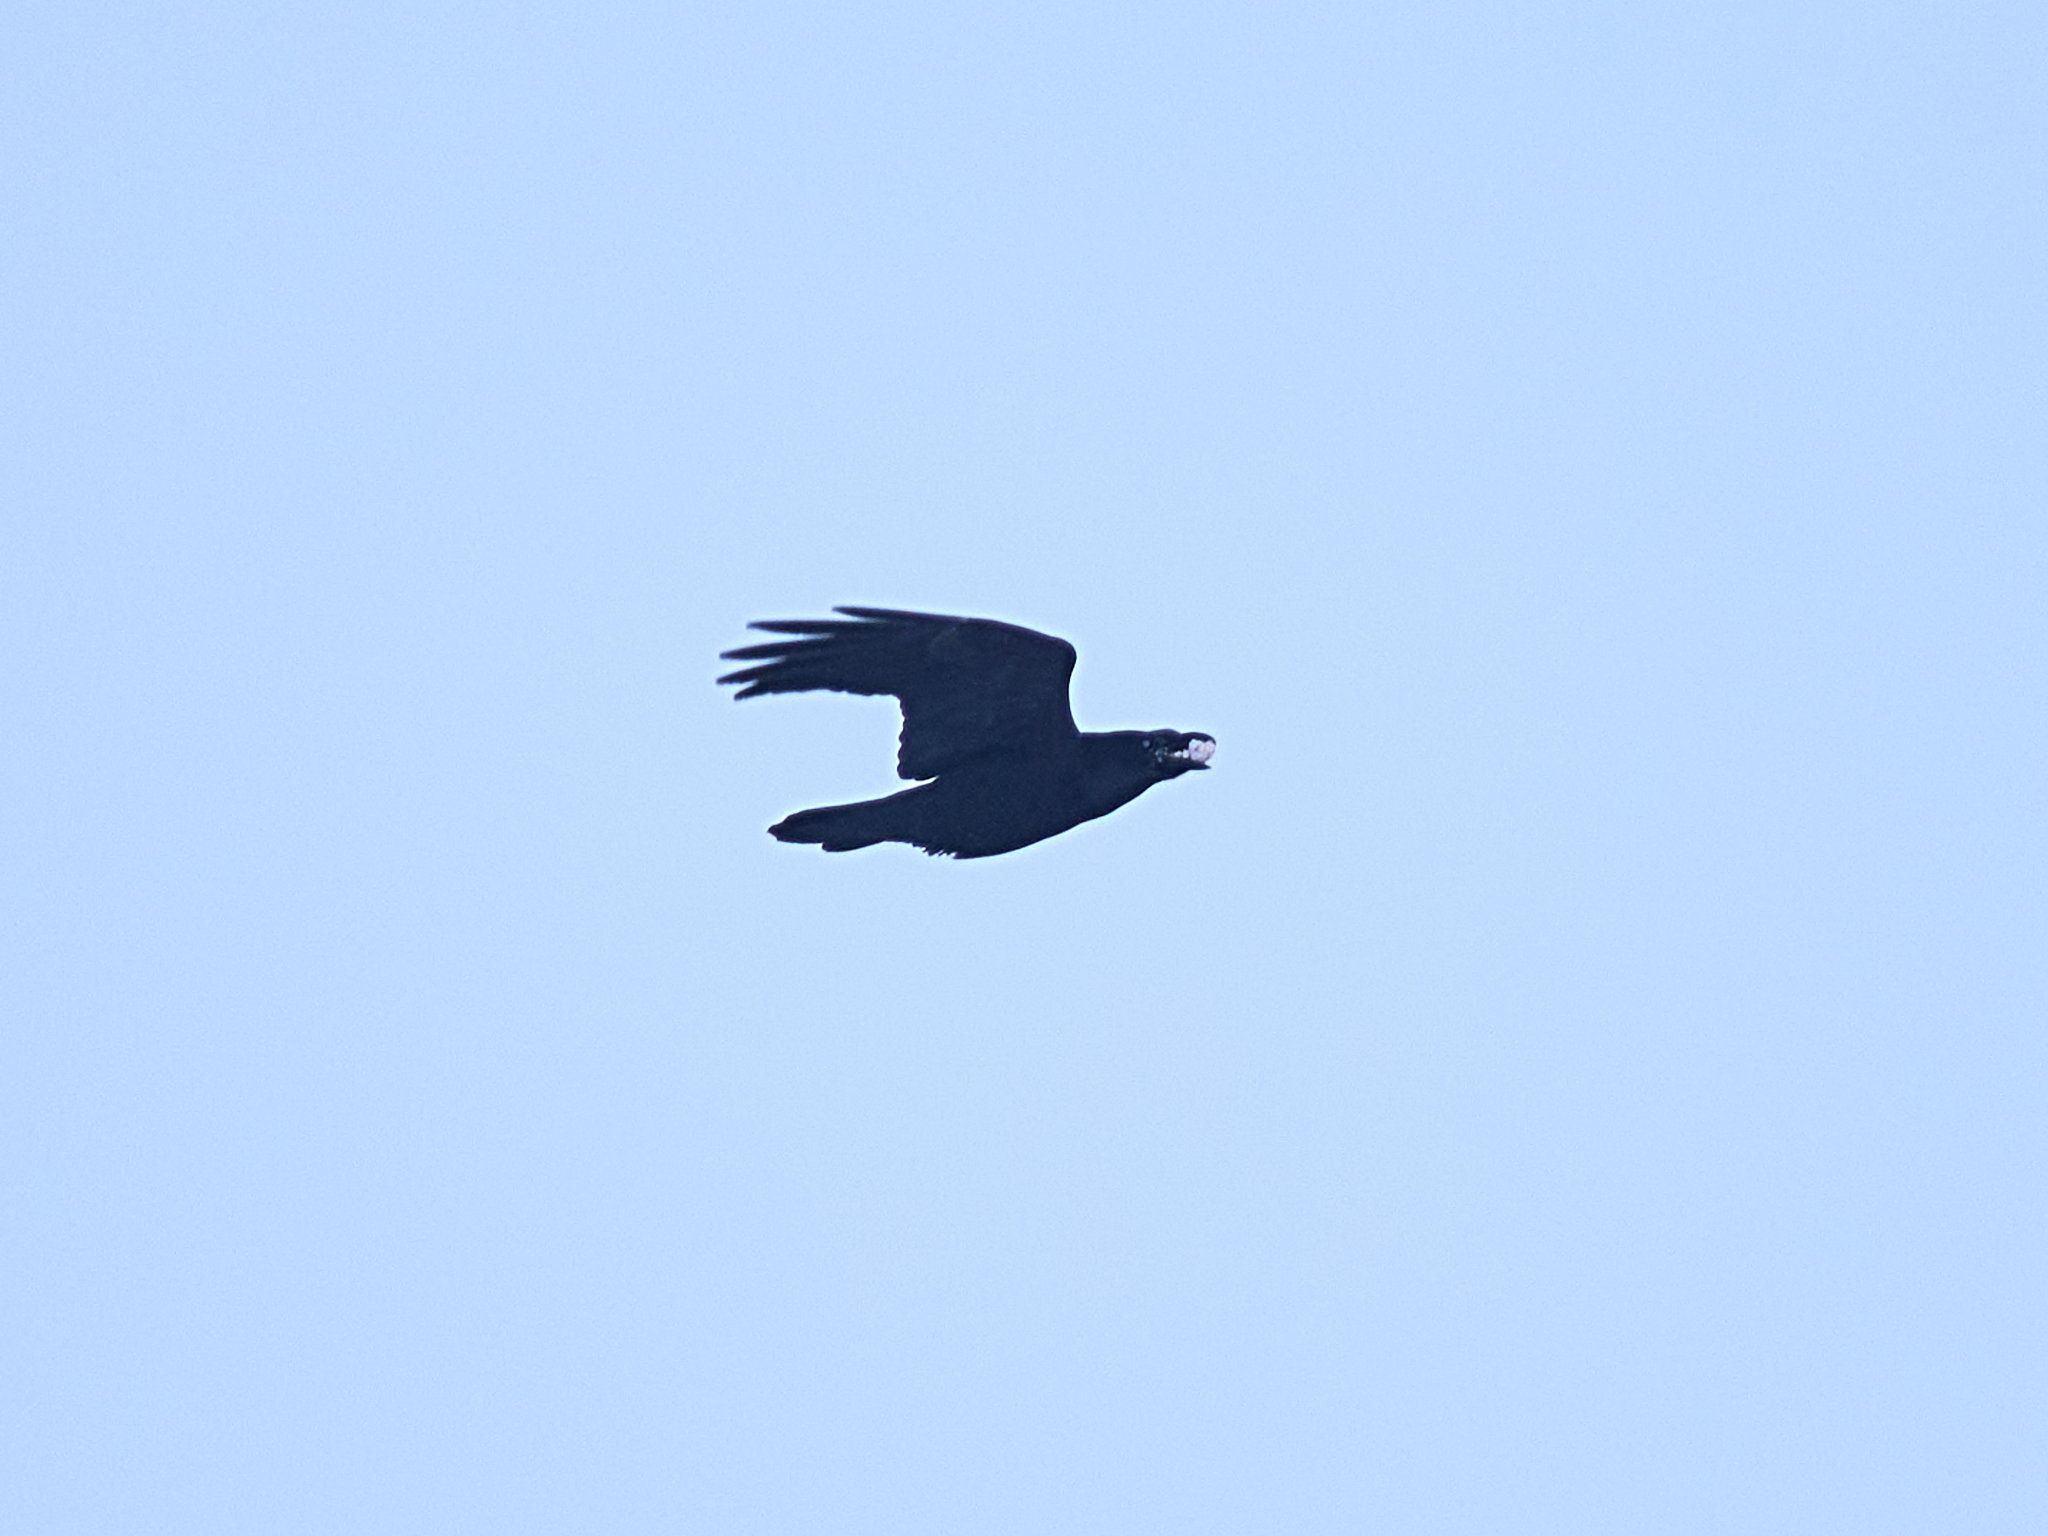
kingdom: Animalia
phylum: Chordata
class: Aves
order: Passeriformes
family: Corvidae
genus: Corvus
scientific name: Corvus corax
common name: Common raven
